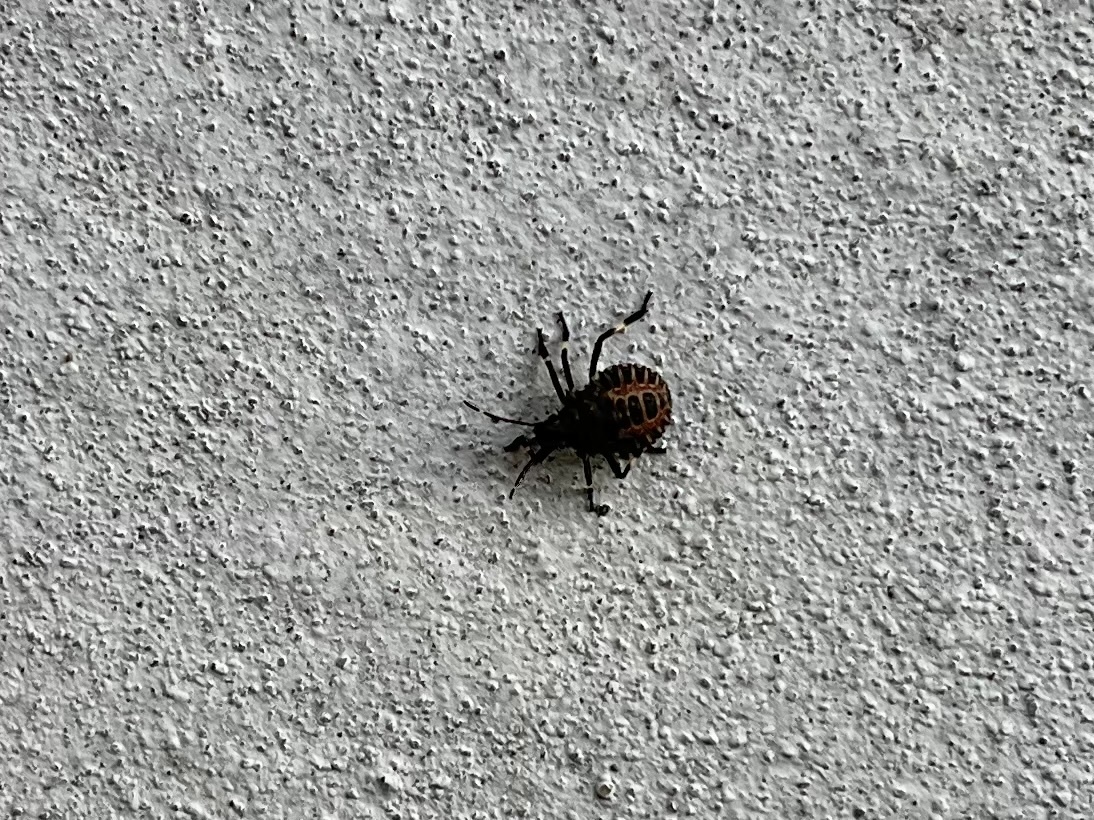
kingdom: Animalia
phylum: Arthropoda
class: Insecta
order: Hemiptera
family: Pentatomidae
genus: Halyomorpha
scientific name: Halyomorpha halys
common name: Brown marmorated stink bug
